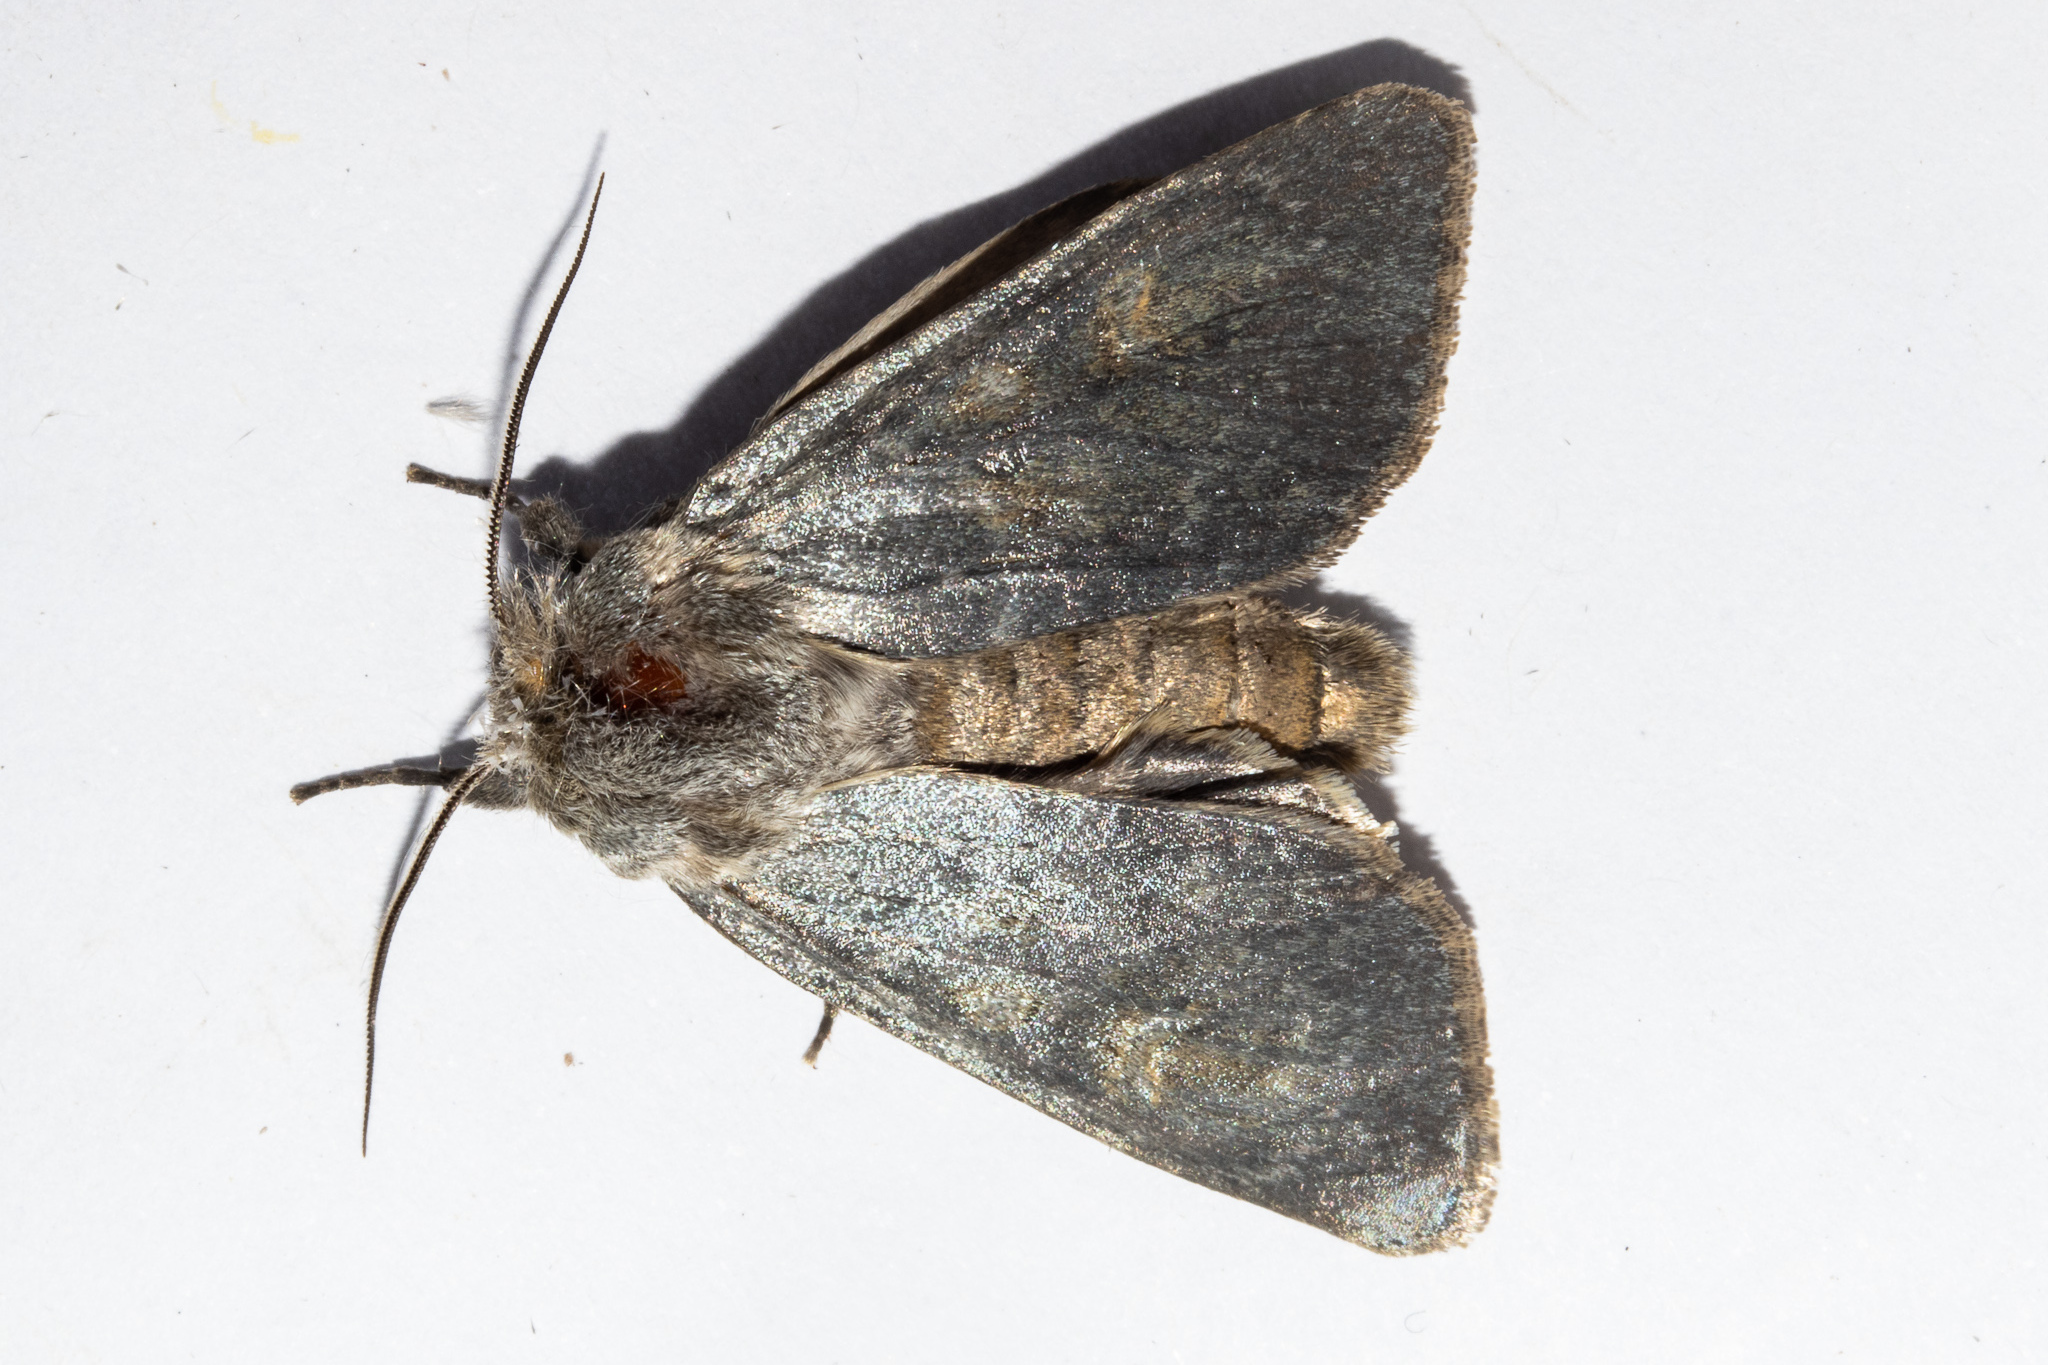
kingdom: Animalia
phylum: Arthropoda
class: Insecta
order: Lepidoptera
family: Noctuidae
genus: Ichneutica
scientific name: Ichneutica
